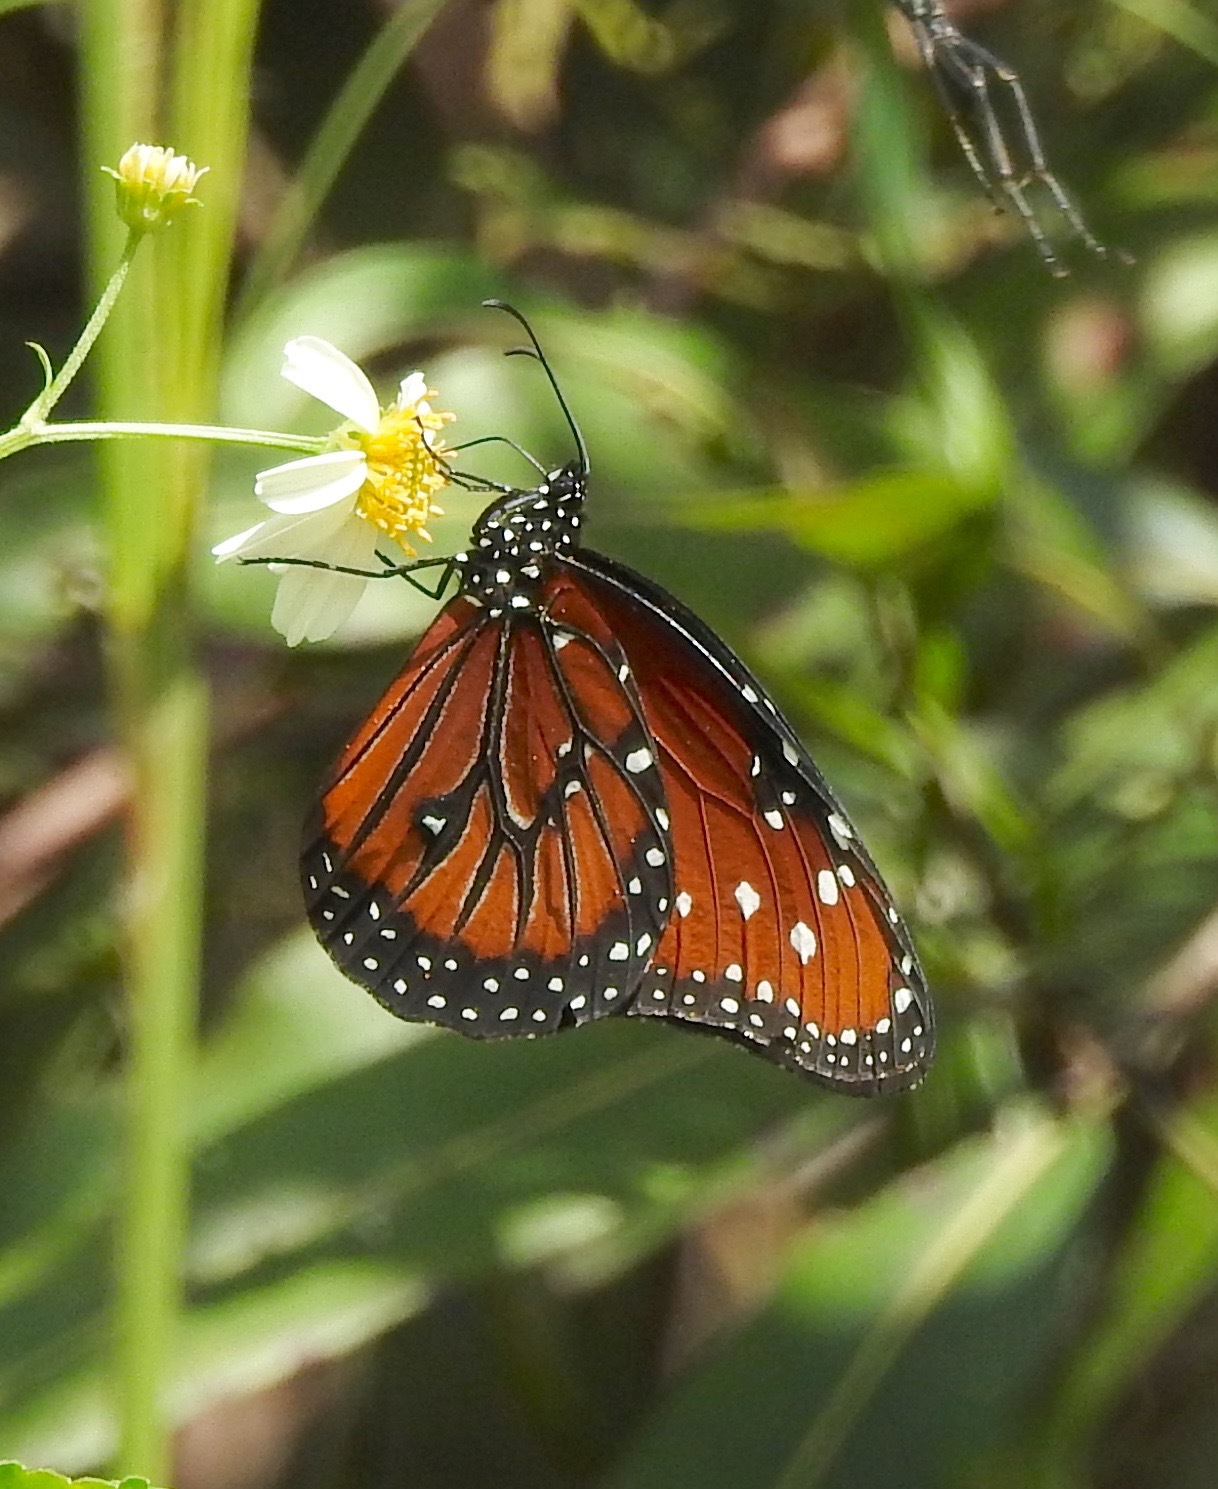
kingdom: Animalia
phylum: Arthropoda
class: Insecta
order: Lepidoptera
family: Nymphalidae
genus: Danaus
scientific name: Danaus gilippus
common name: Queen
